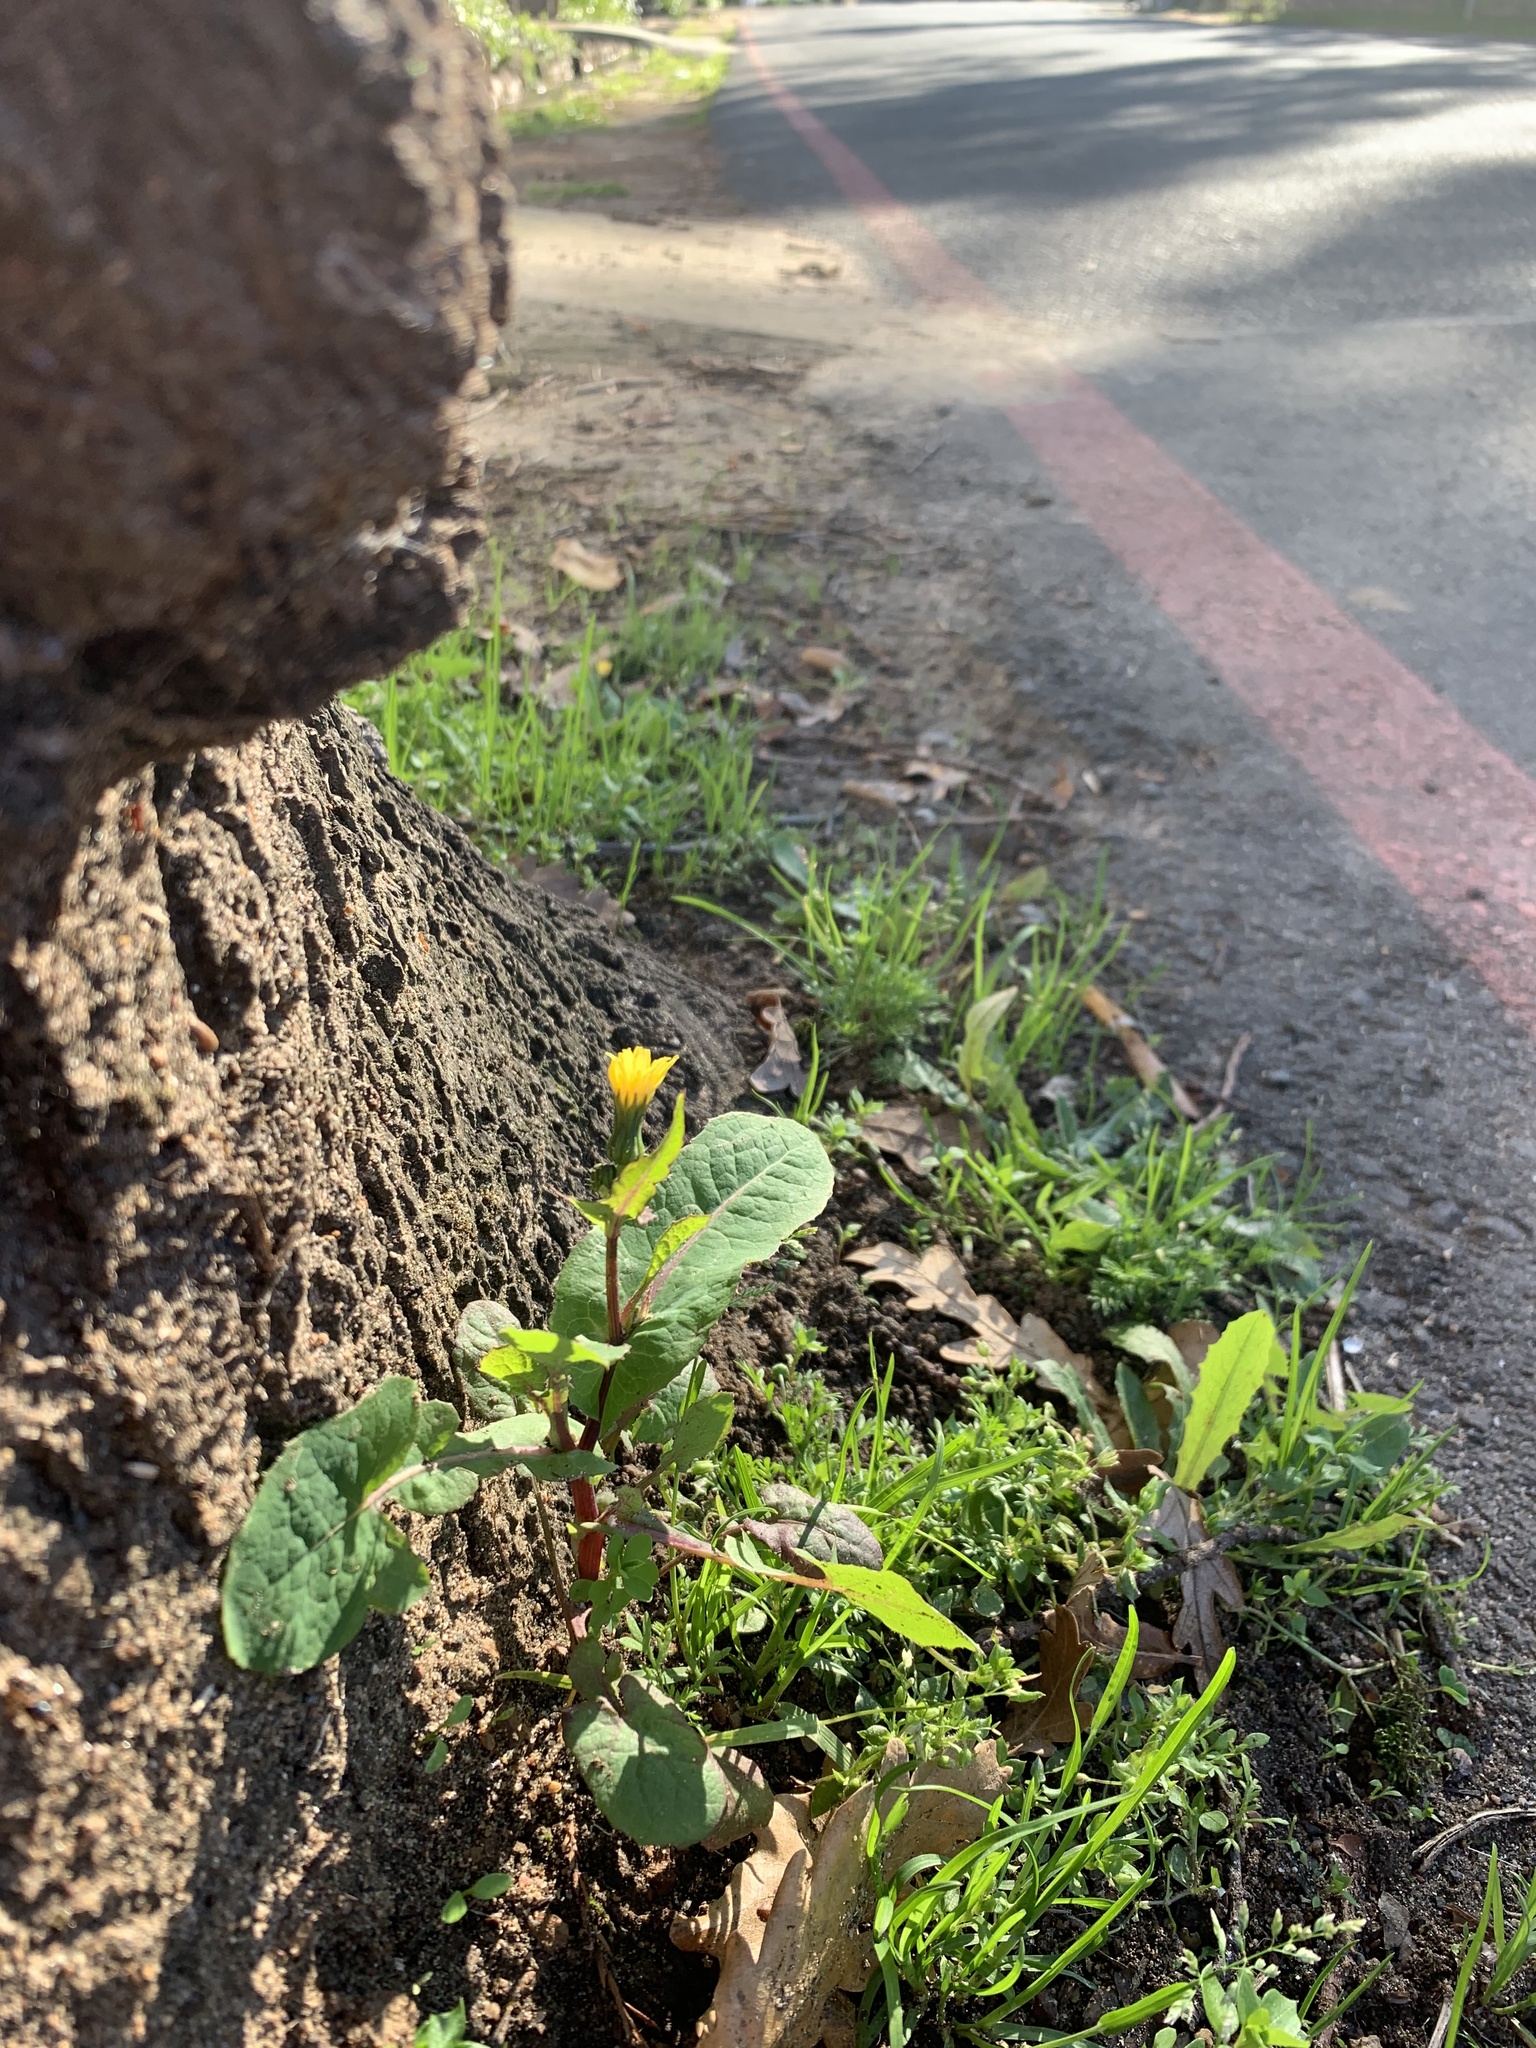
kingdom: Plantae
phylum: Tracheophyta
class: Magnoliopsida
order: Asterales
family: Asteraceae
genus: Sonchus
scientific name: Sonchus oleraceus
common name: Common sowthistle
